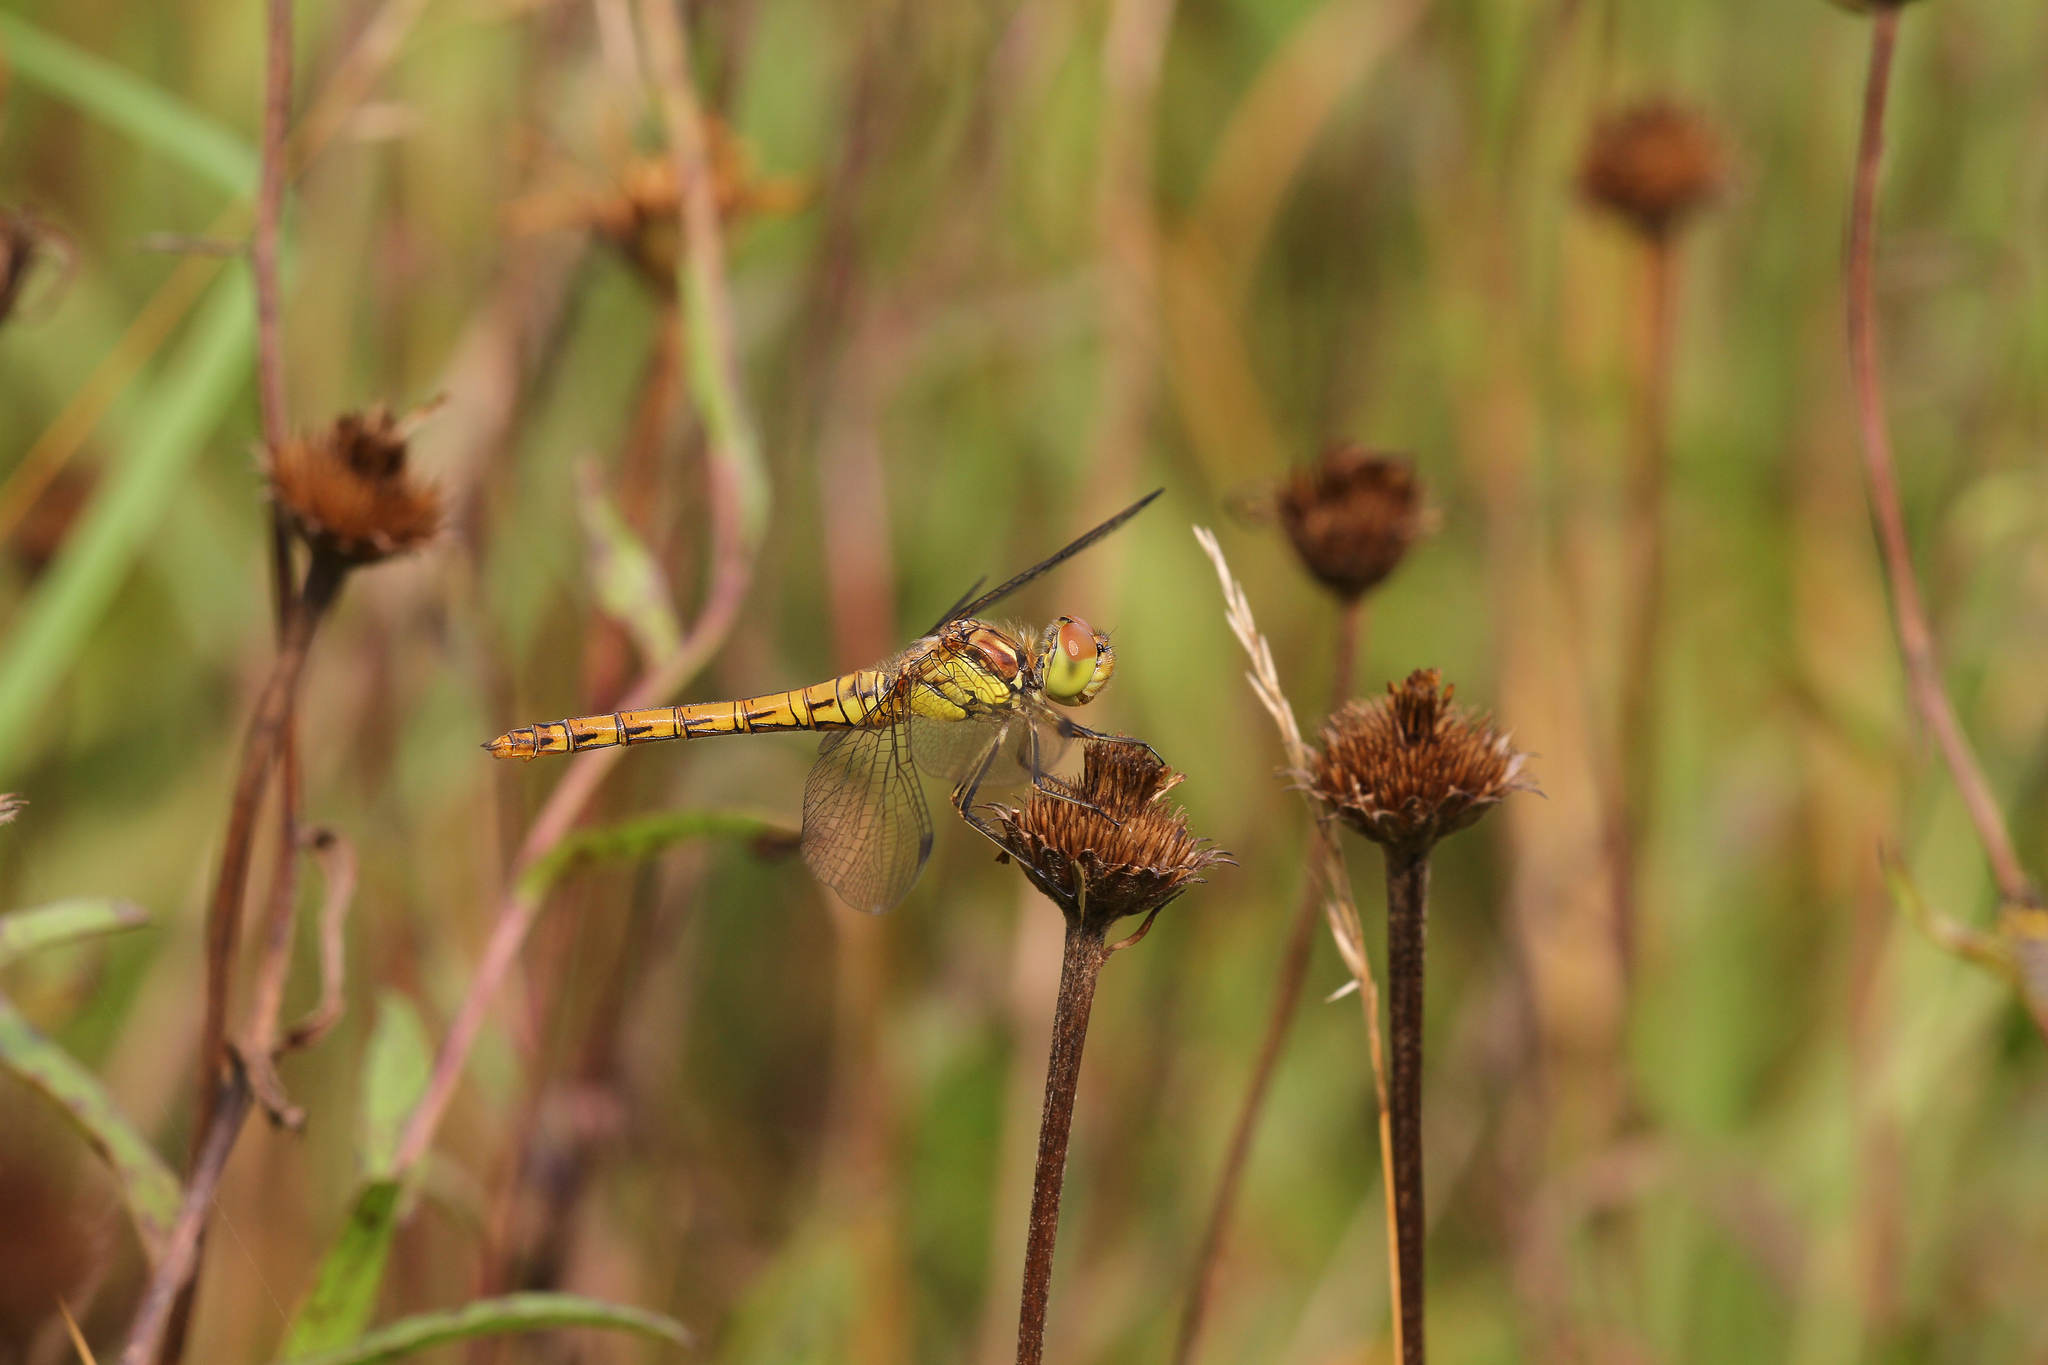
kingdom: Animalia
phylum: Arthropoda
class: Insecta
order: Odonata
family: Libellulidae
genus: Sympetrum
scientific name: Sympetrum striolatum
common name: Common darter
